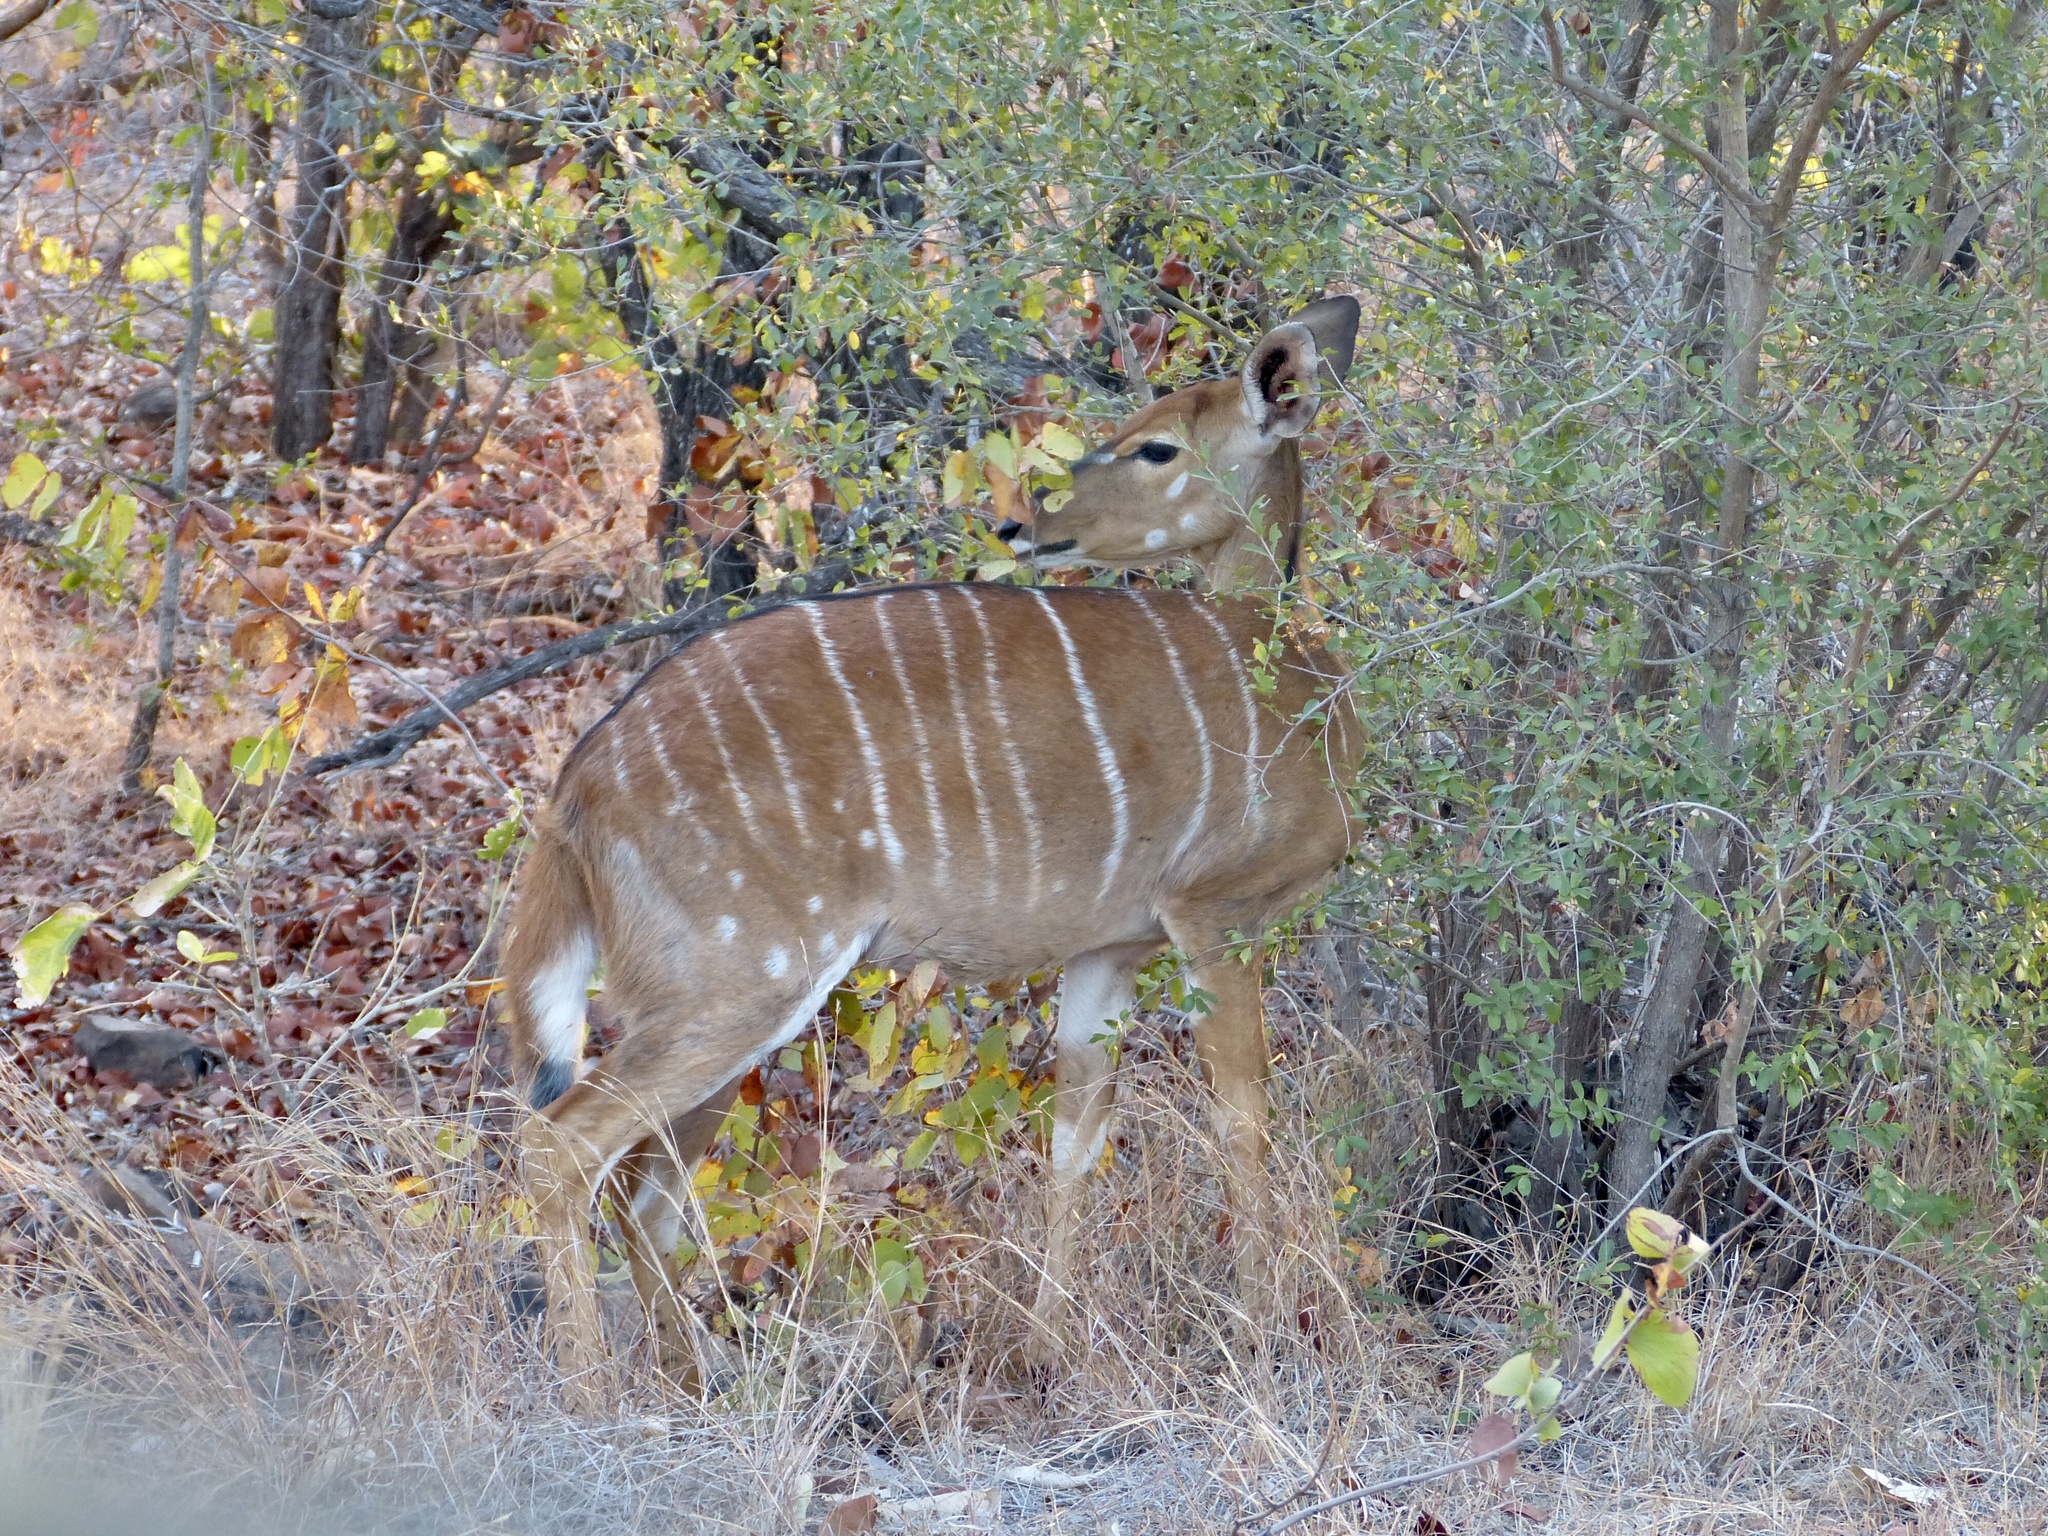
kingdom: Animalia
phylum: Chordata
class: Mammalia
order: Artiodactyla
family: Bovidae
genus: Tragelaphus
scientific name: Tragelaphus angasii
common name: Nyala
